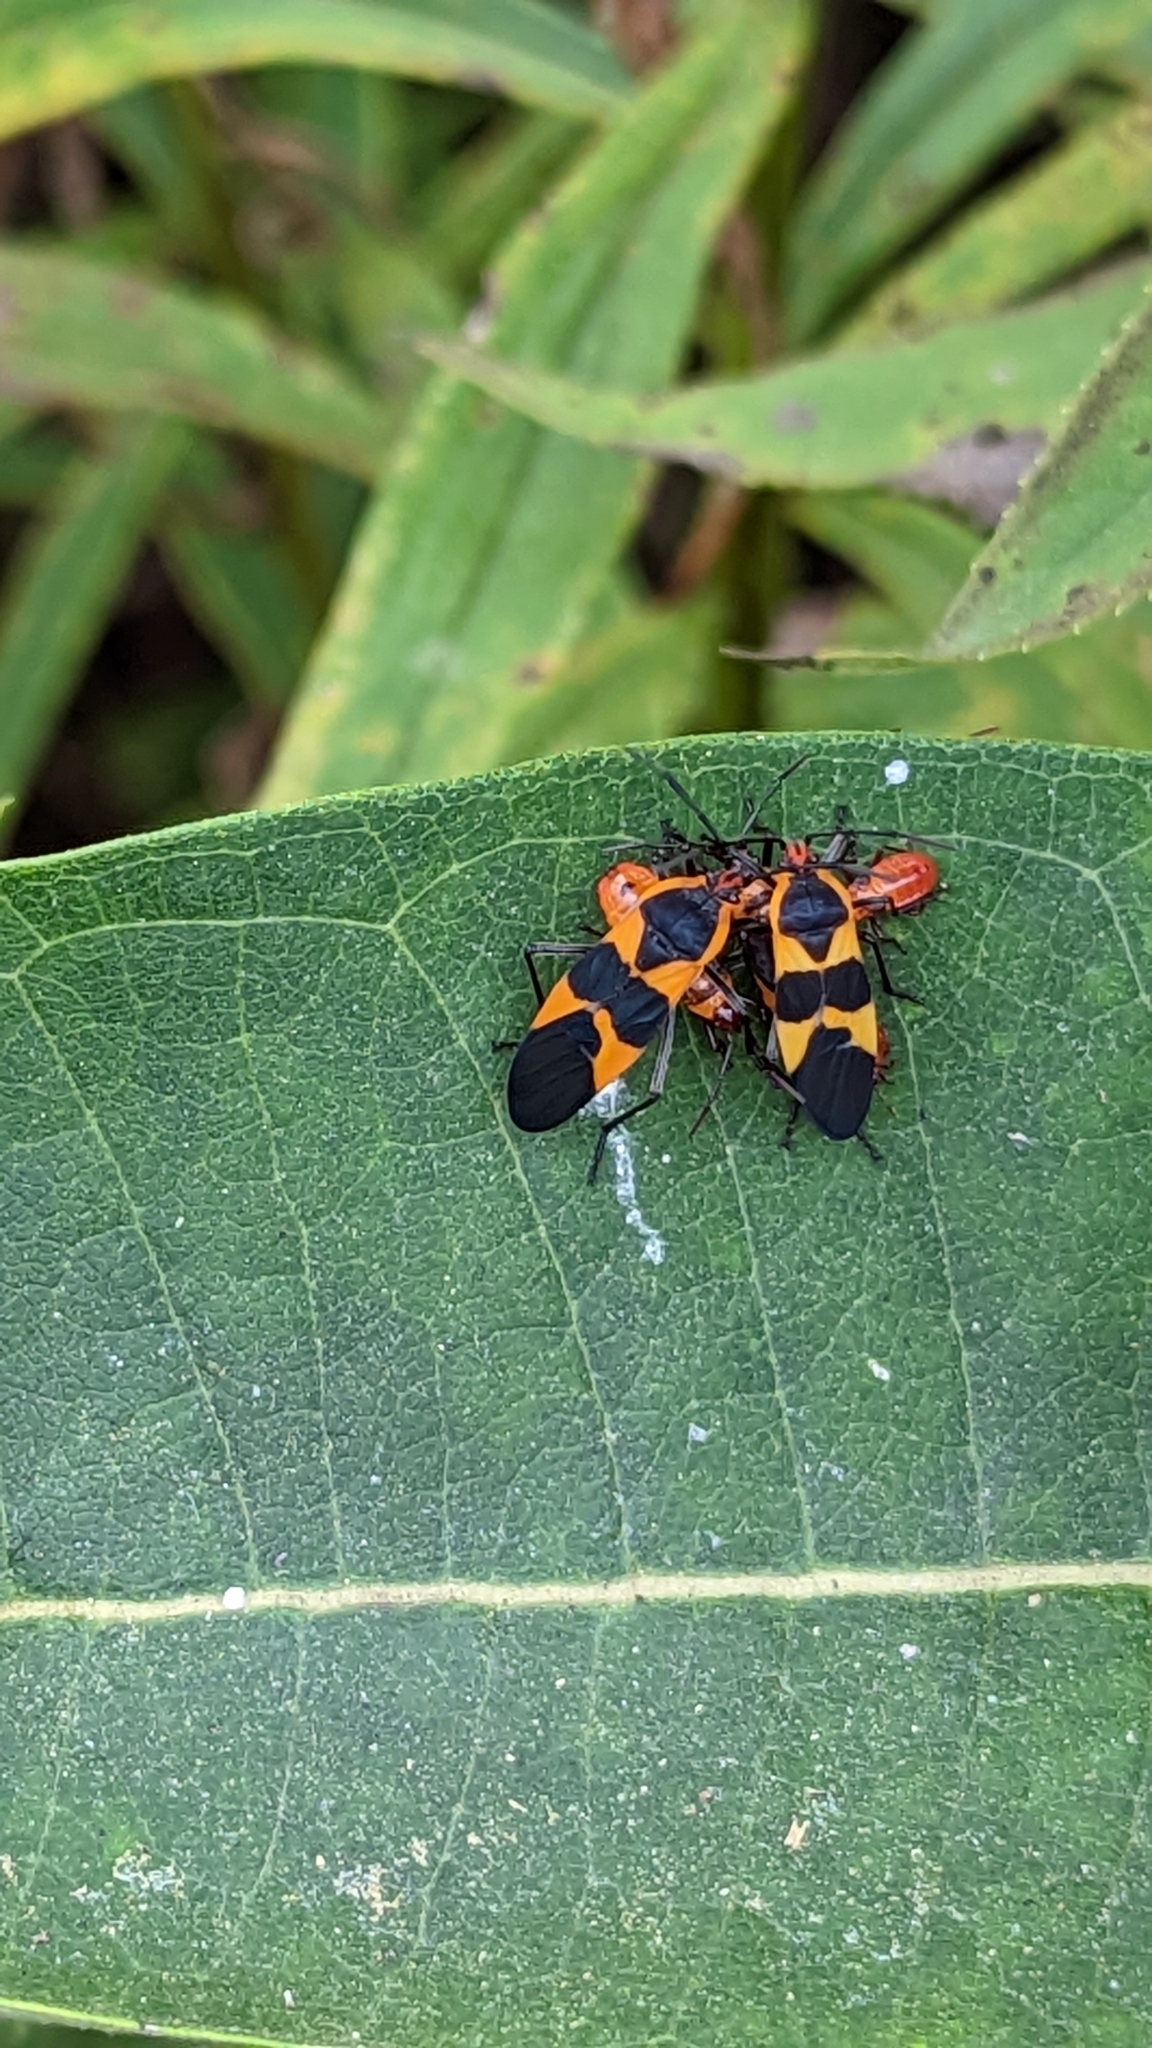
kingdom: Animalia
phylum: Arthropoda
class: Insecta
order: Hemiptera
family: Lygaeidae
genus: Oncopeltus
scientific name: Oncopeltus fasciatus
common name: Large milkweed bug
